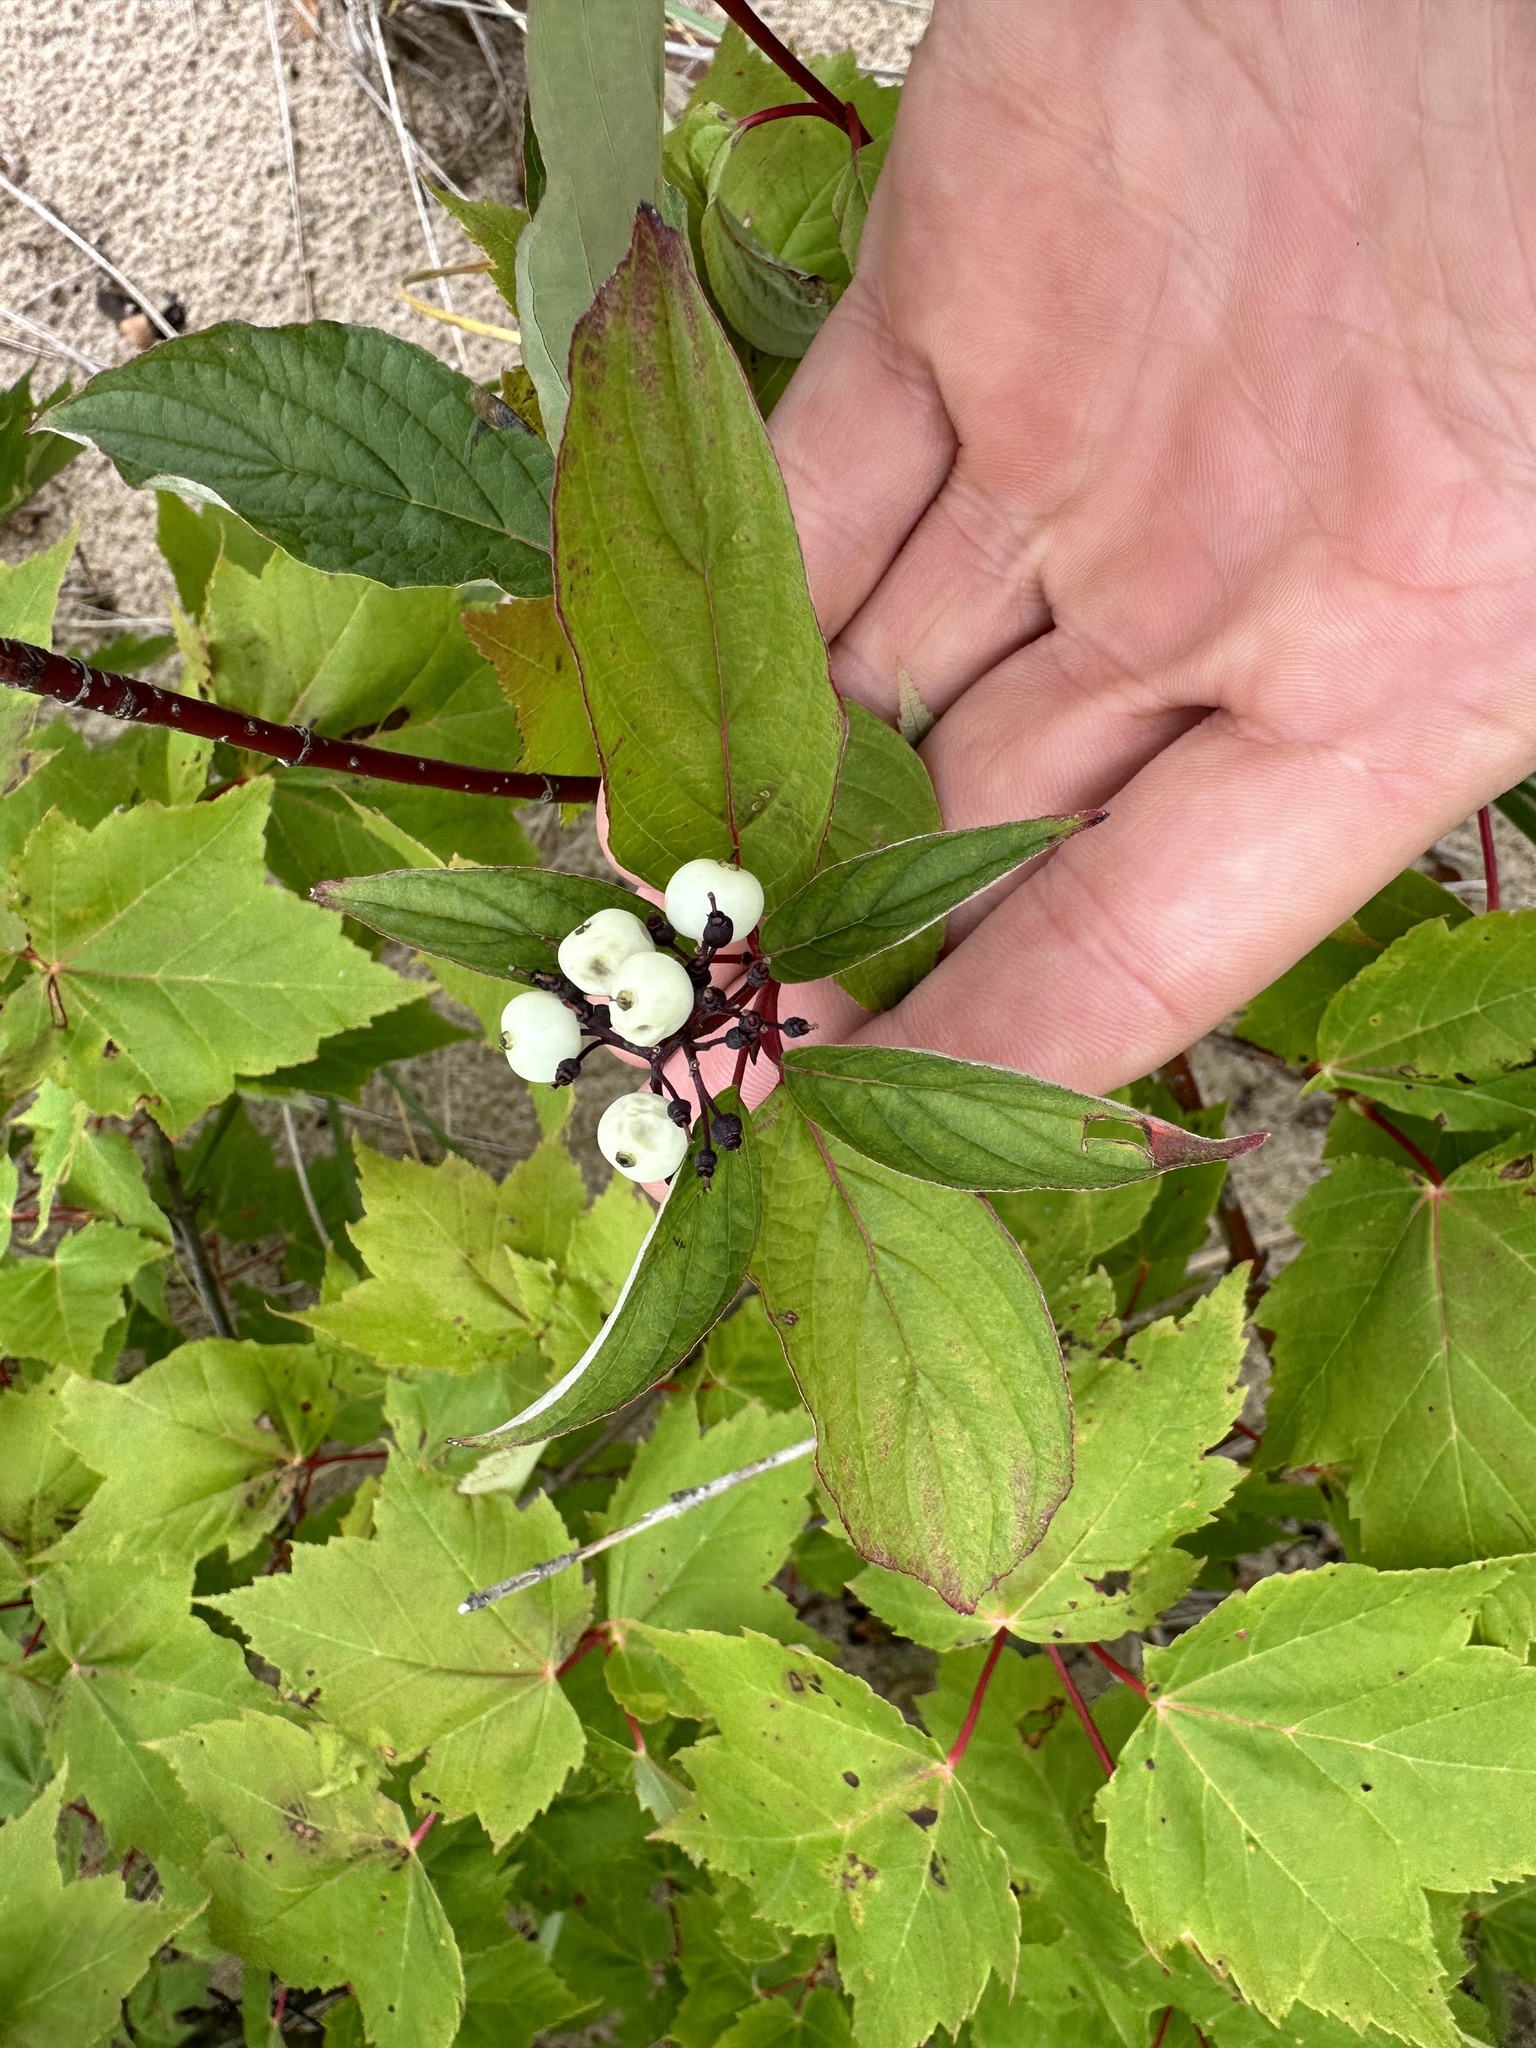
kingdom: Plantae
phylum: Tracheophyta
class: Magnoliopsida
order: Cornales
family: Cornaceae
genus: Cornus
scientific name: Cornus sericea
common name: Red-osier dogwood
